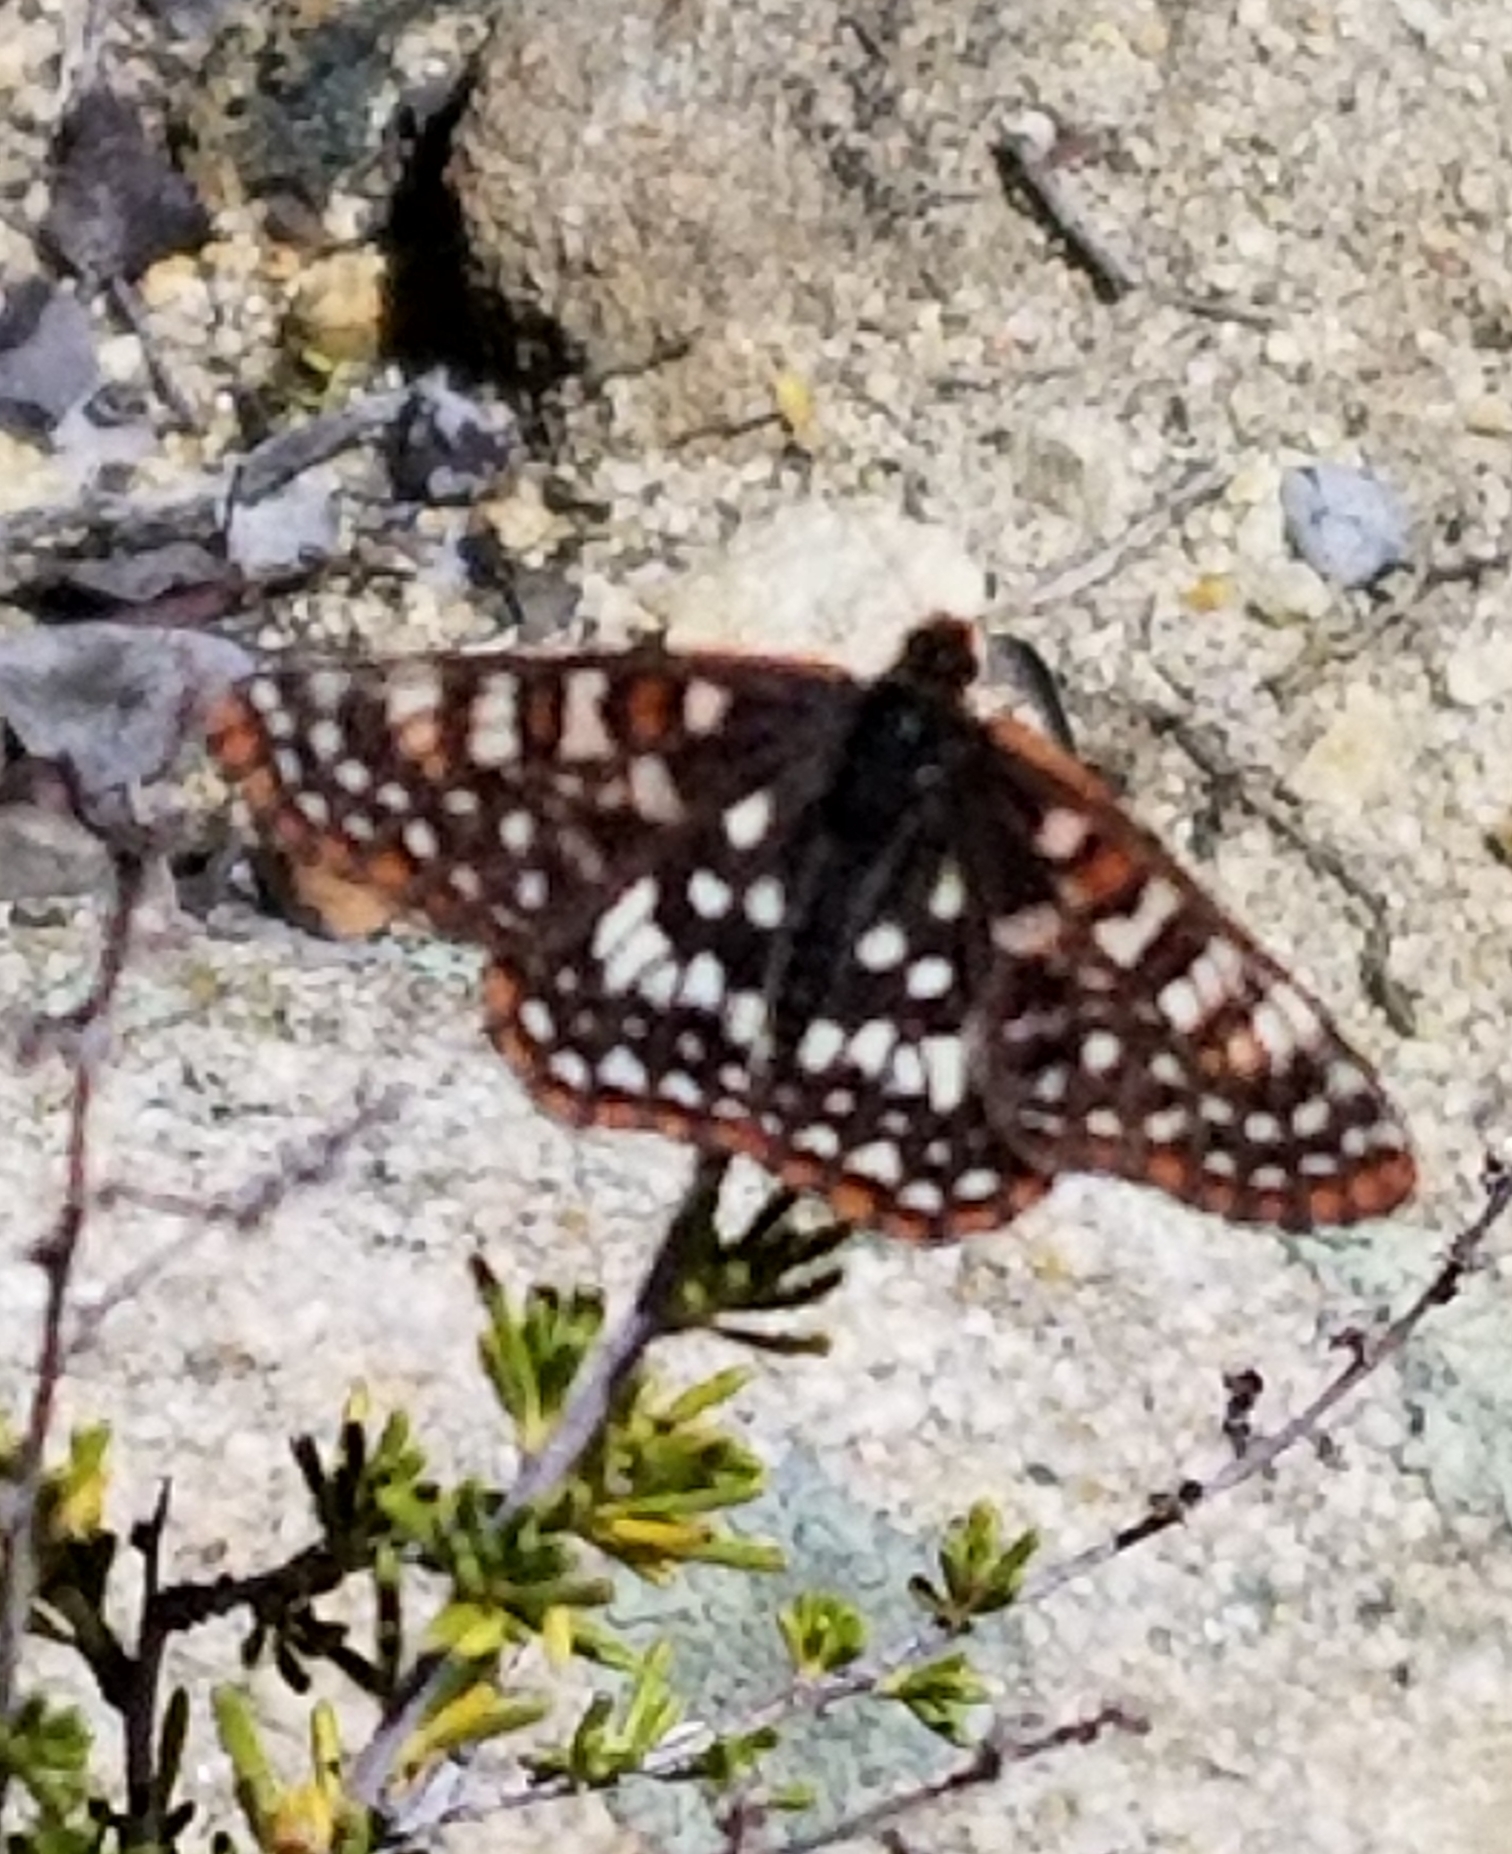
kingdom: Animalia
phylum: Arthropoda
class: Insecta
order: Lepidoptera
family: Nymphalidae
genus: Occidryas
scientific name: Occidryas chalcedona
